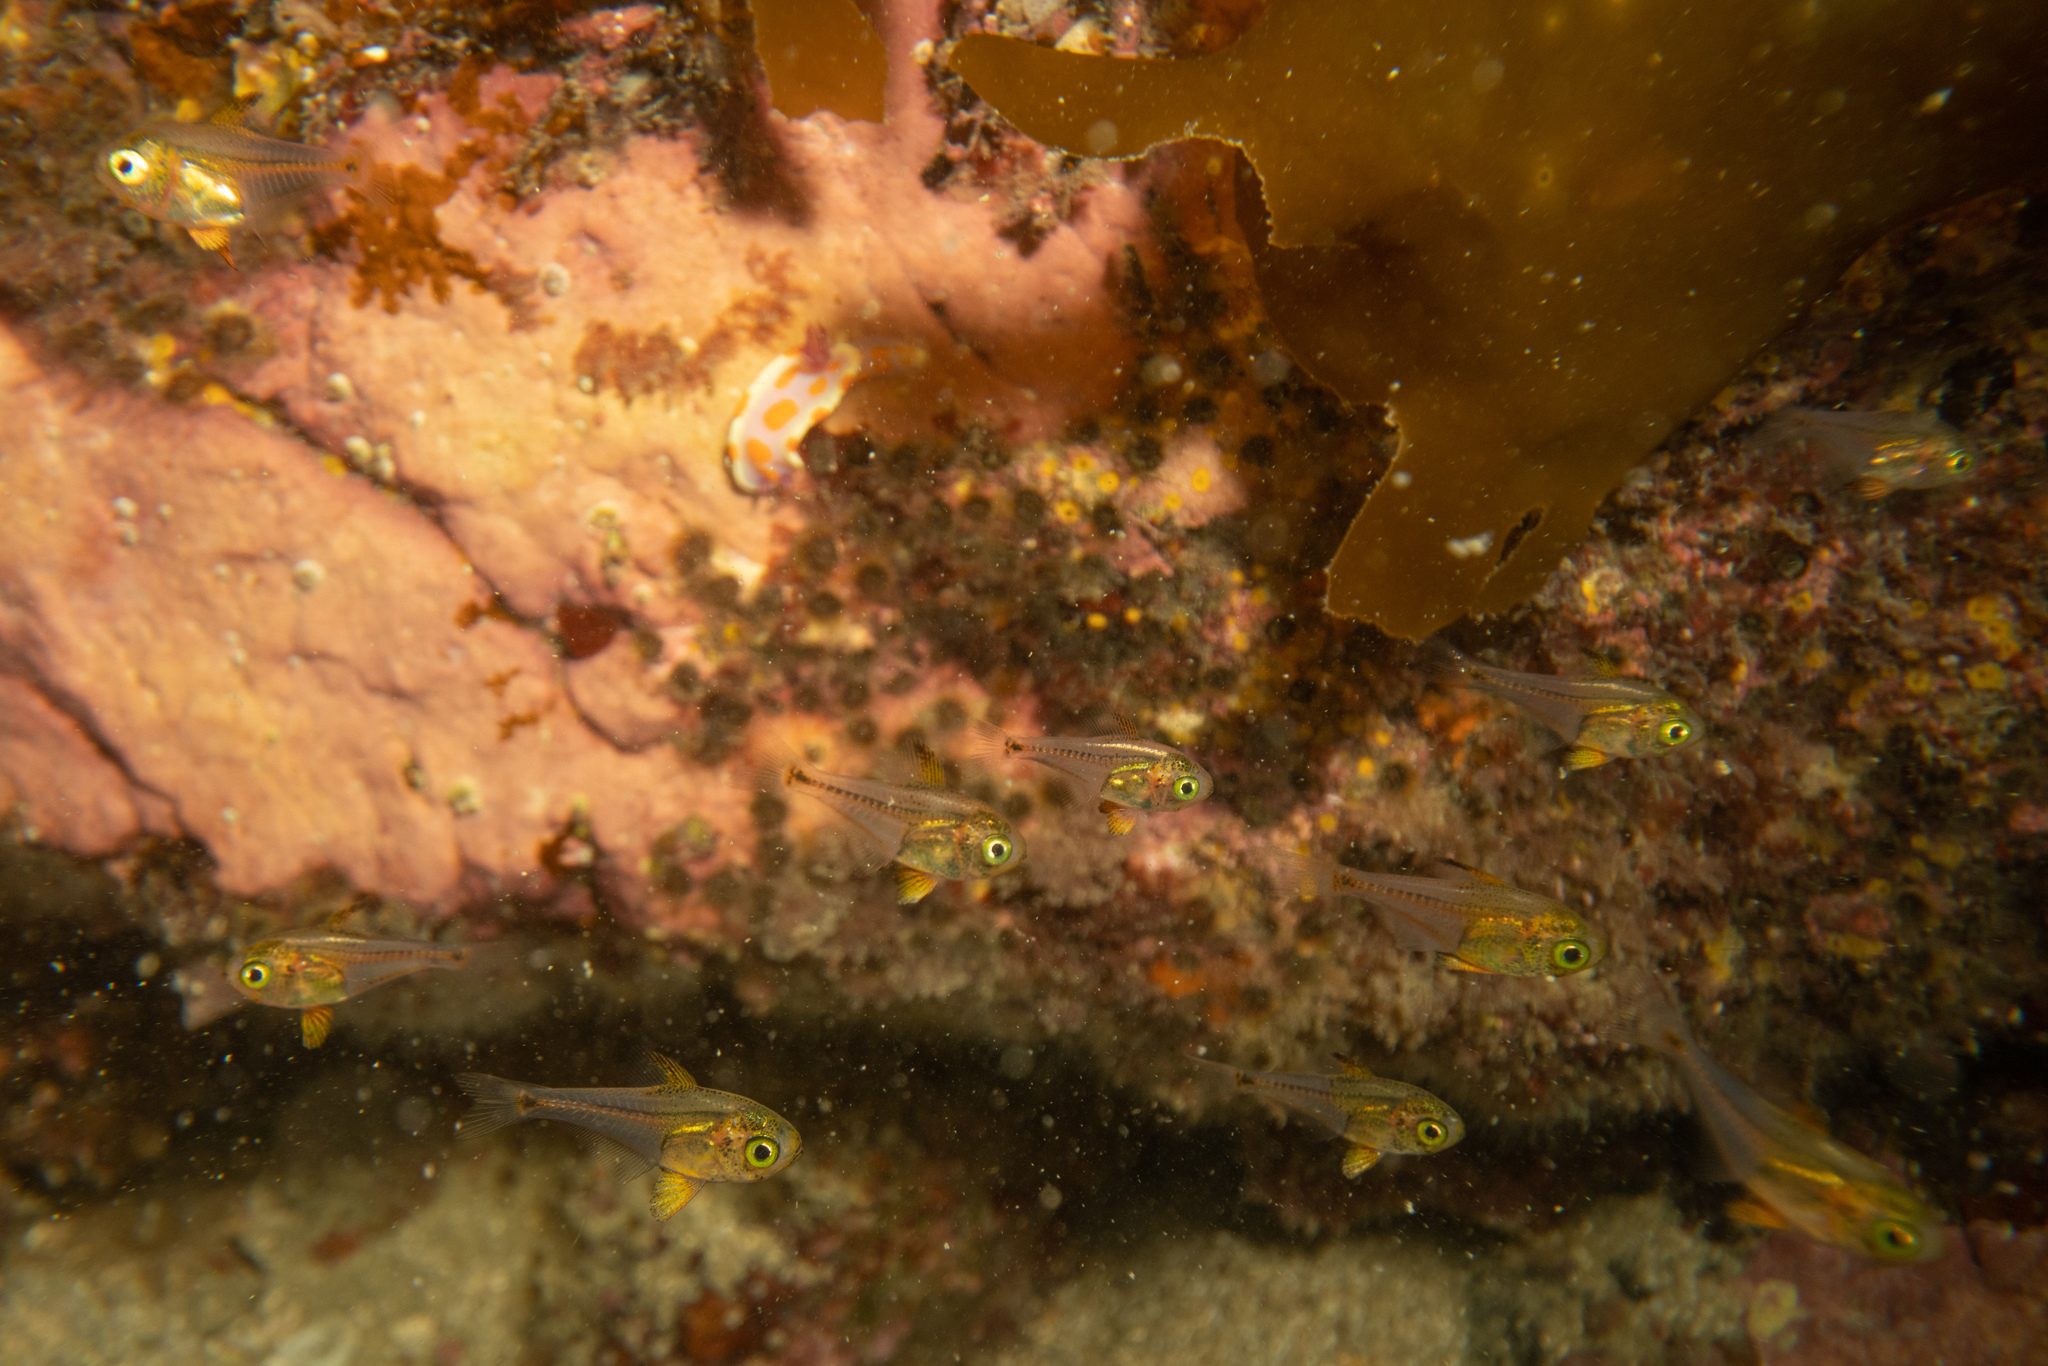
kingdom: Animalia
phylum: Chordata
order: Perciformes
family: Pempheridae
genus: Pempheris
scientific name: Pempheris adspersa
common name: Bigeye
